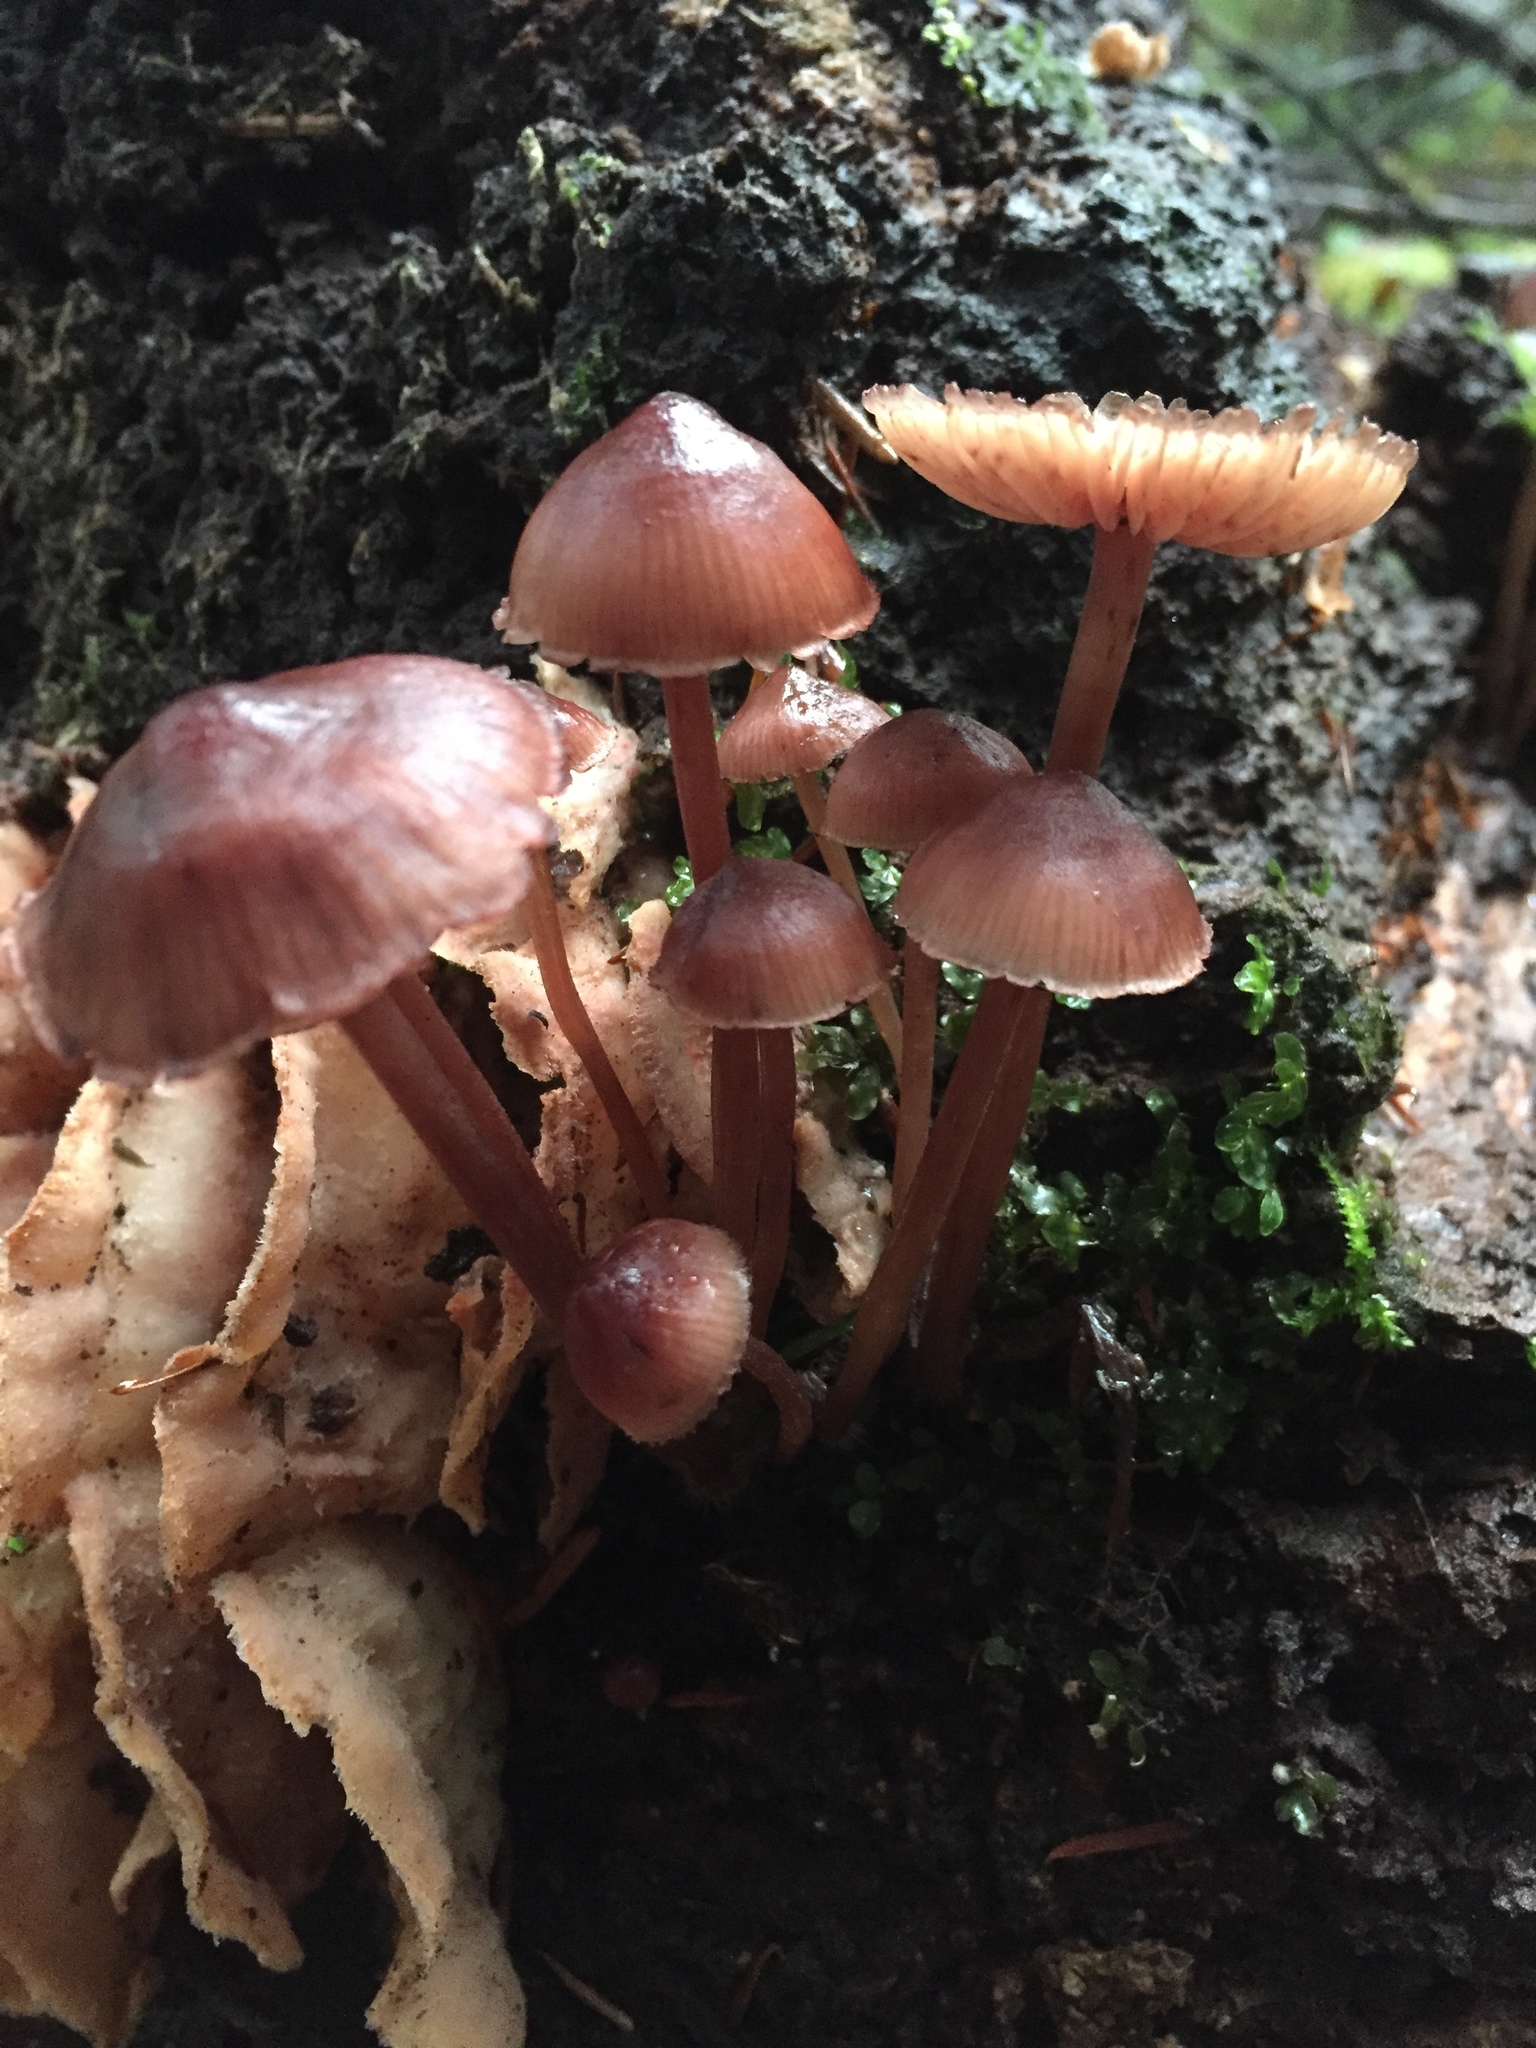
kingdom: Fungi
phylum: Basidiomycota
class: Agaricomycetes
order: Agaricales
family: Mycenaceae
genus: Mycena
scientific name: Mycena haematopus
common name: Burgundydrop bonnet
